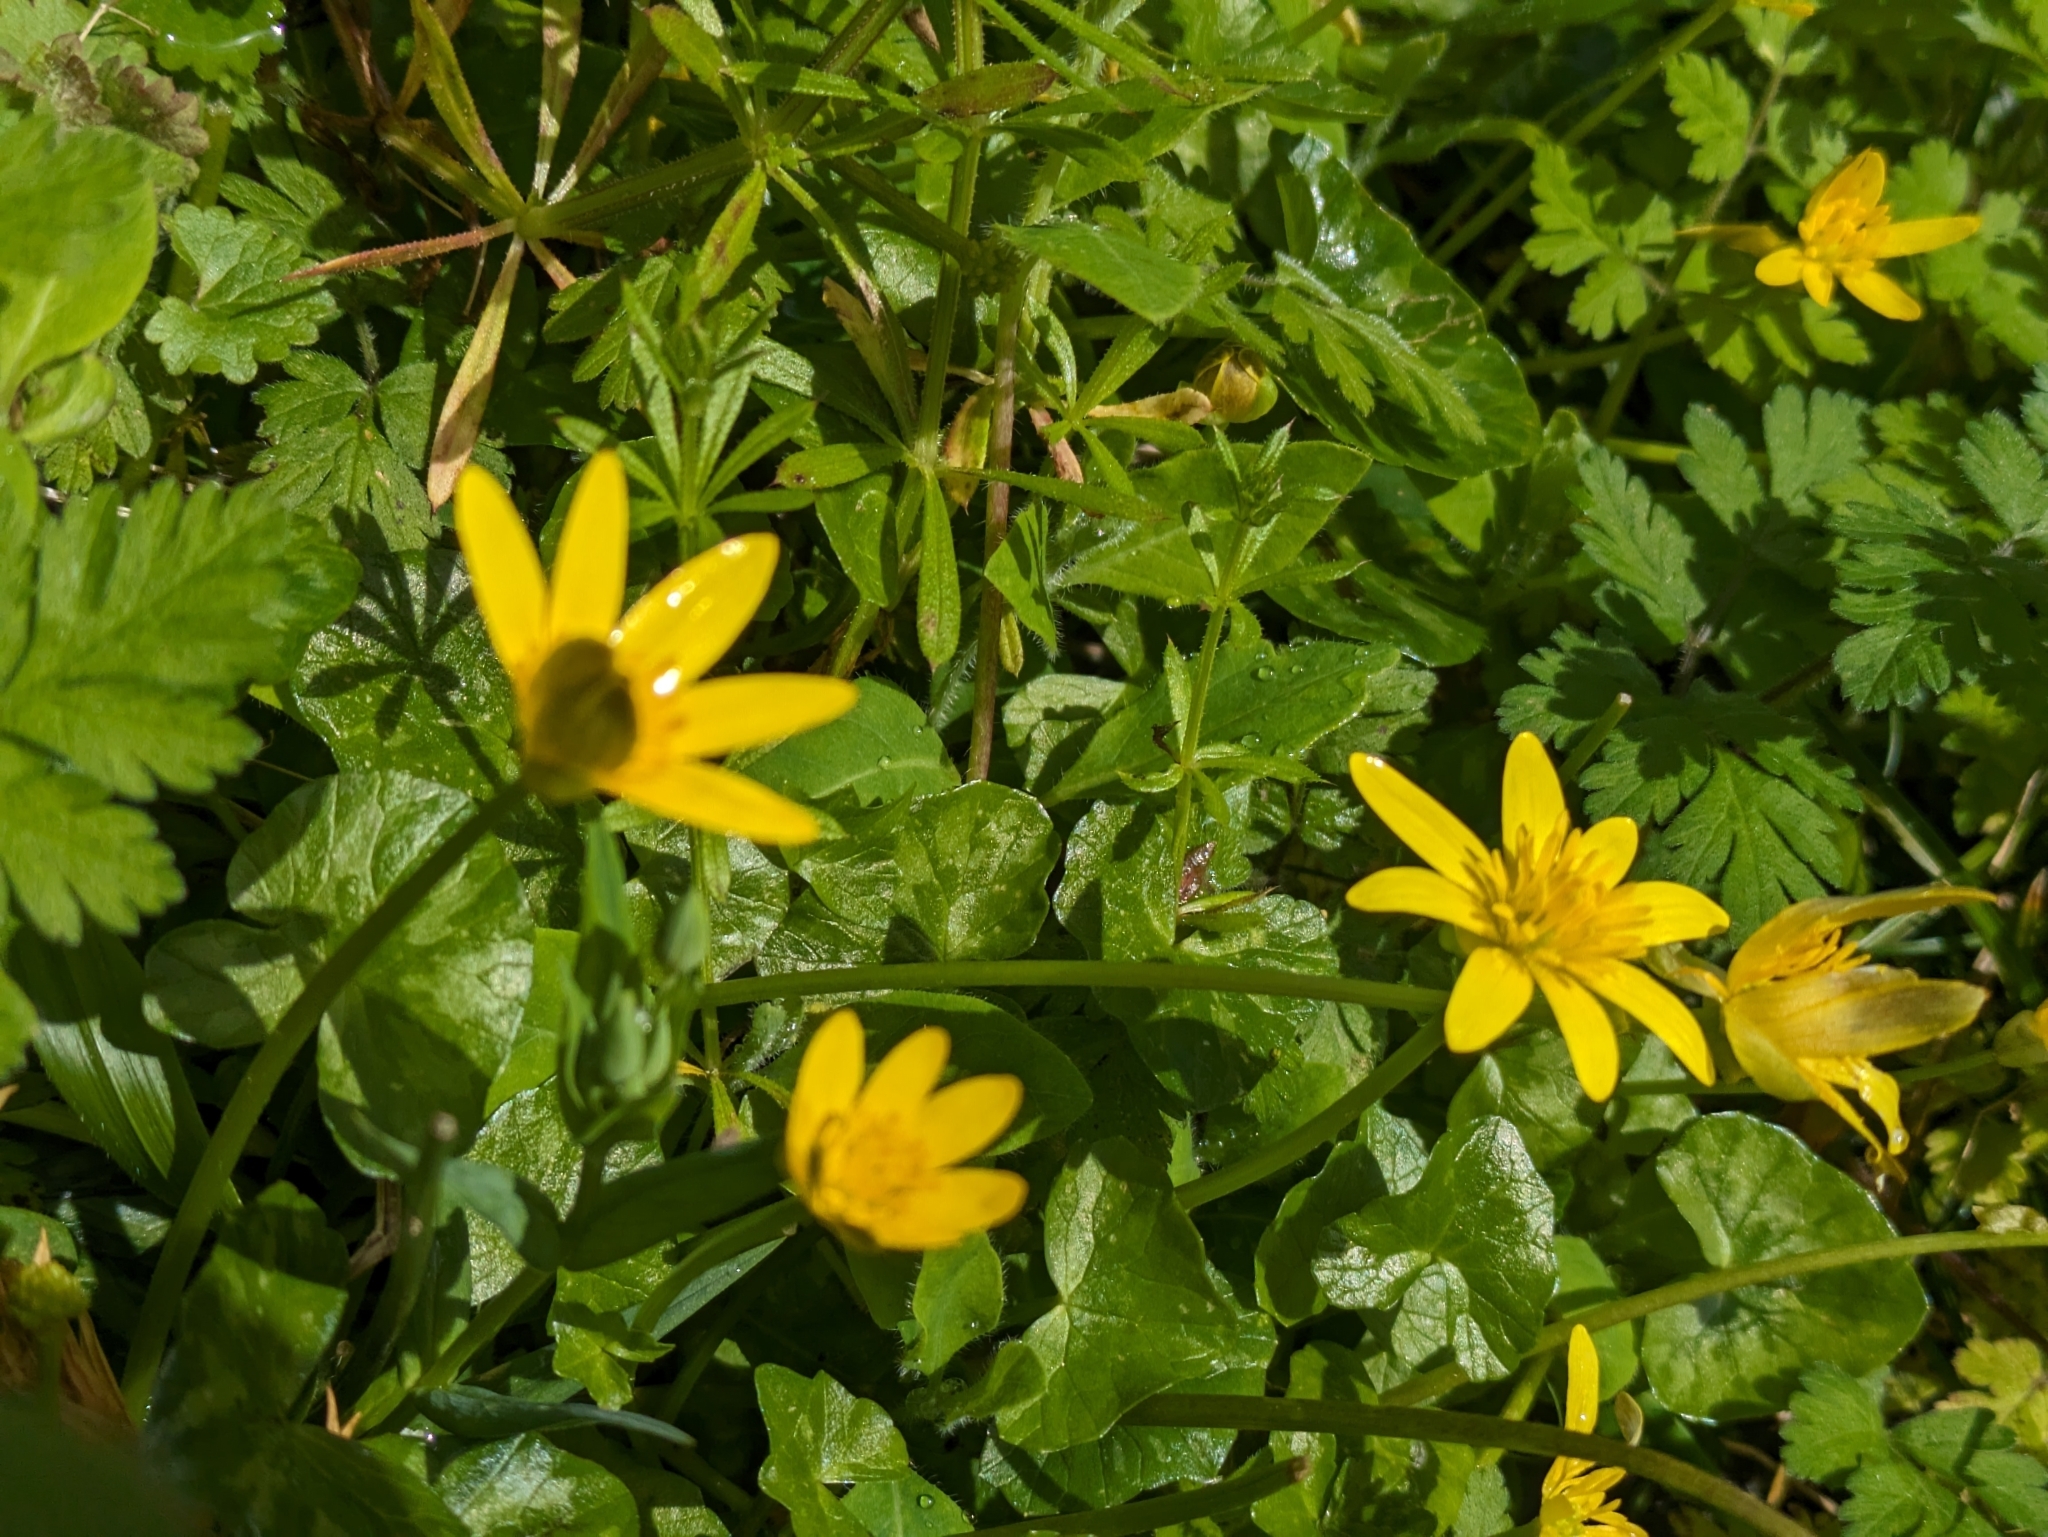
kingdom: Plantae
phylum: Tracheophyta
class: Magnoliopsida
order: Ranunculales
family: Ranunculaceae
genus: Ficaria
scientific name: Ficaria verna
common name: Lesser celandine
